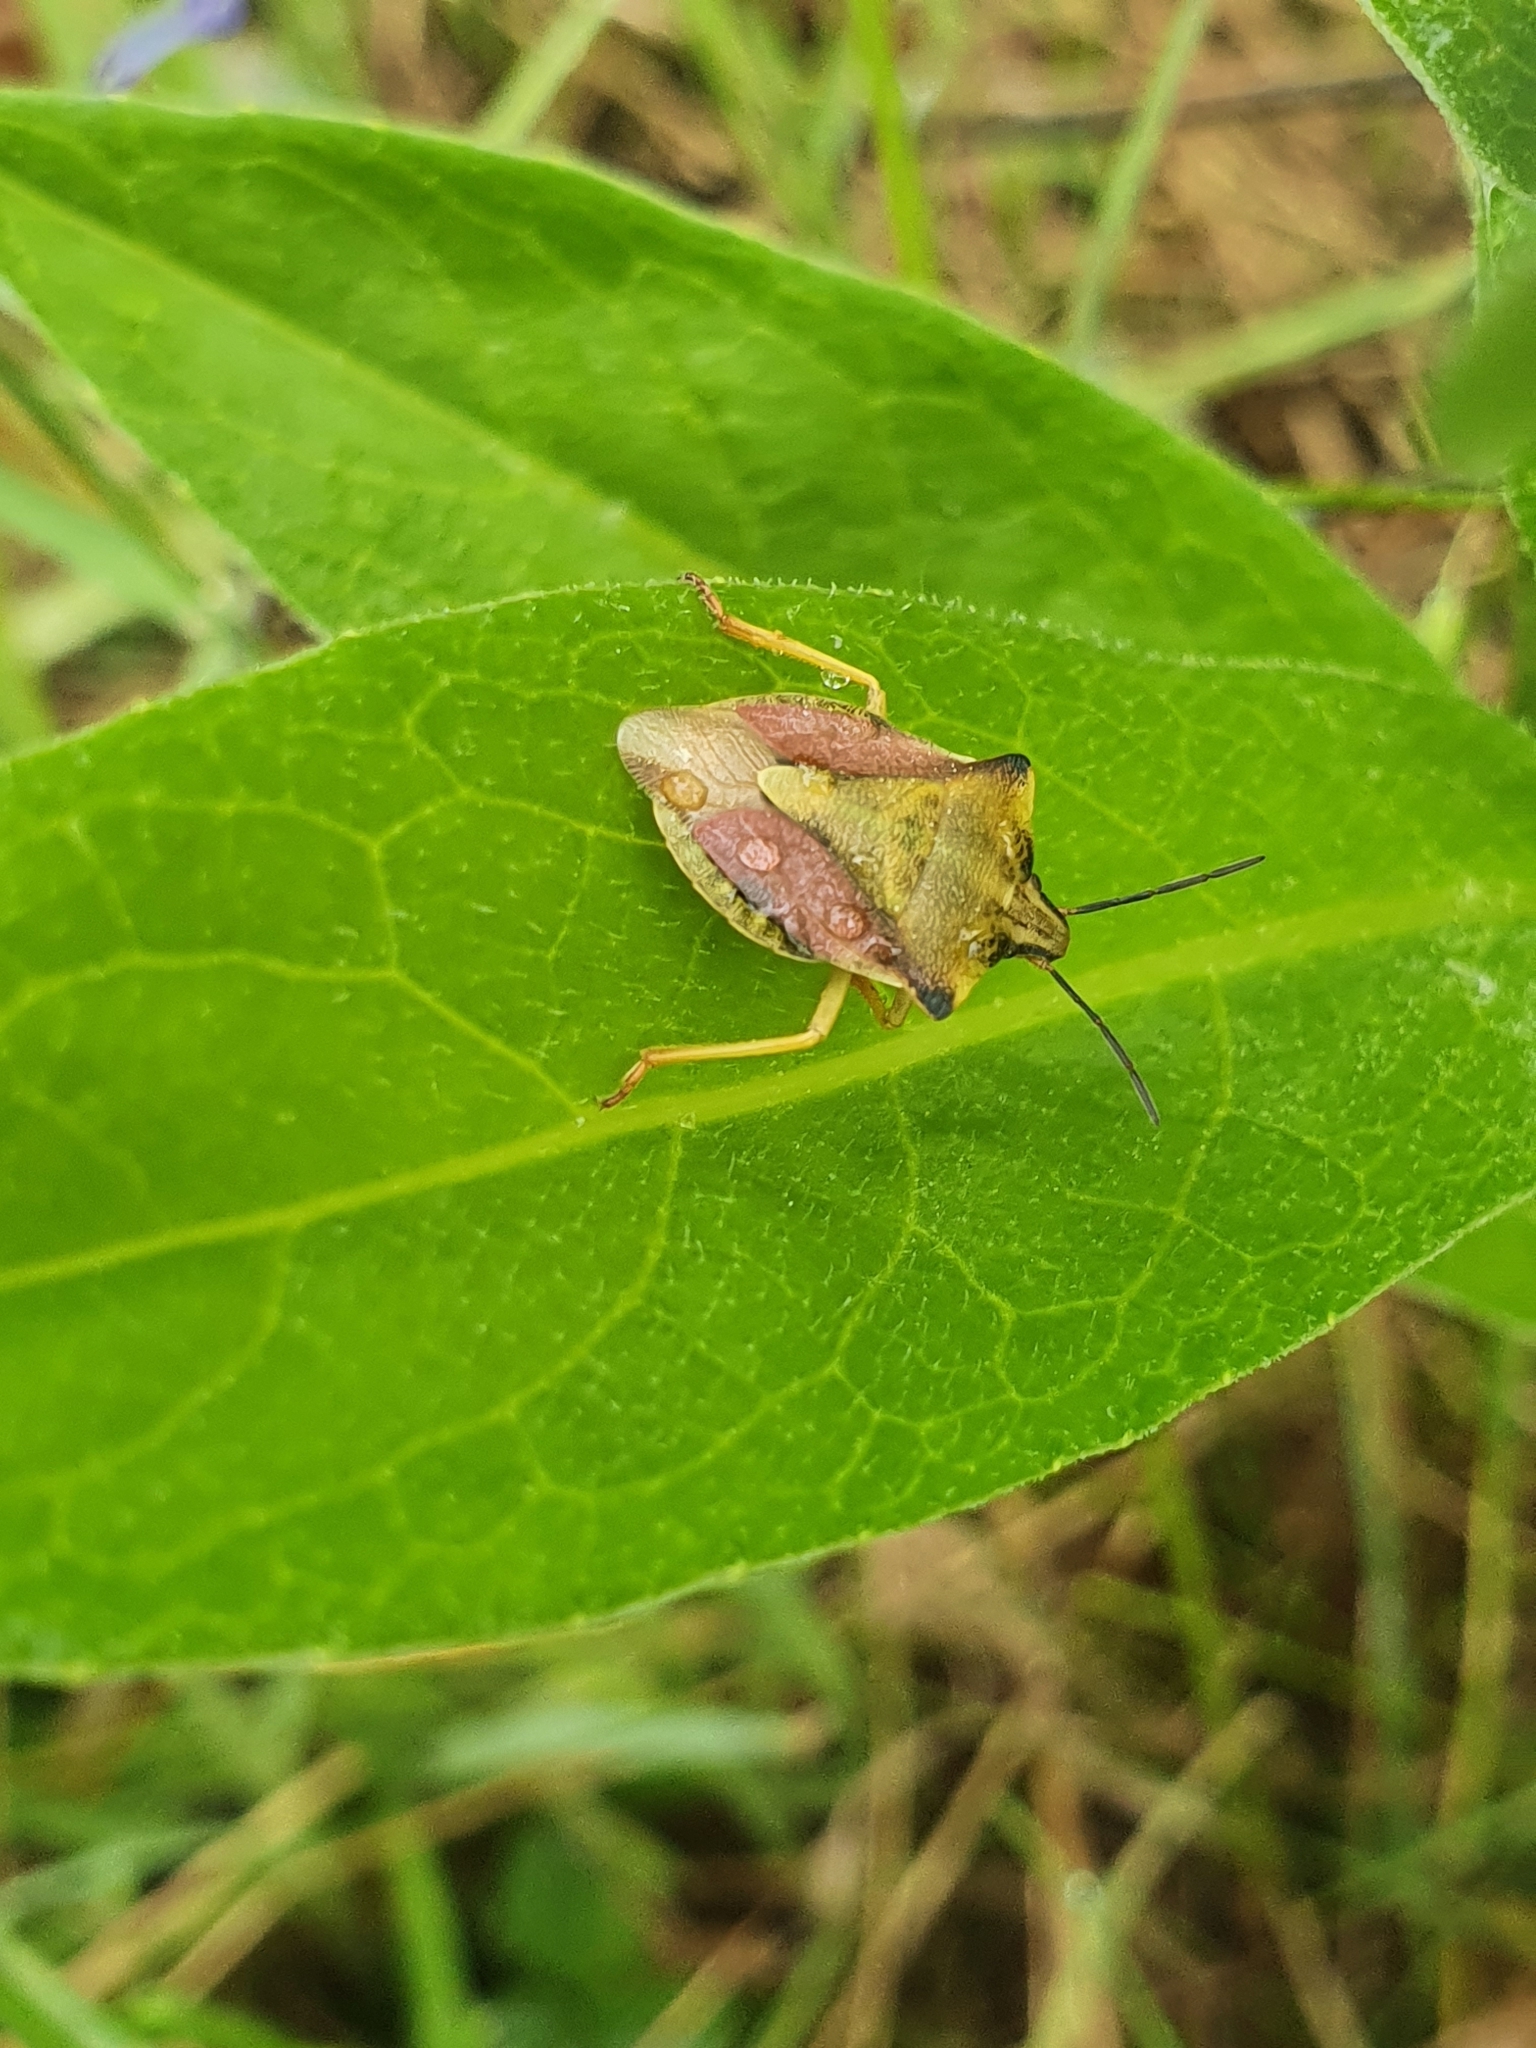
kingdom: Animalia
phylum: Arthropoda
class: Insecta
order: Hemiptera
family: Pentatomidae
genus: Carpocoris
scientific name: Carpocoris fuscispinus
